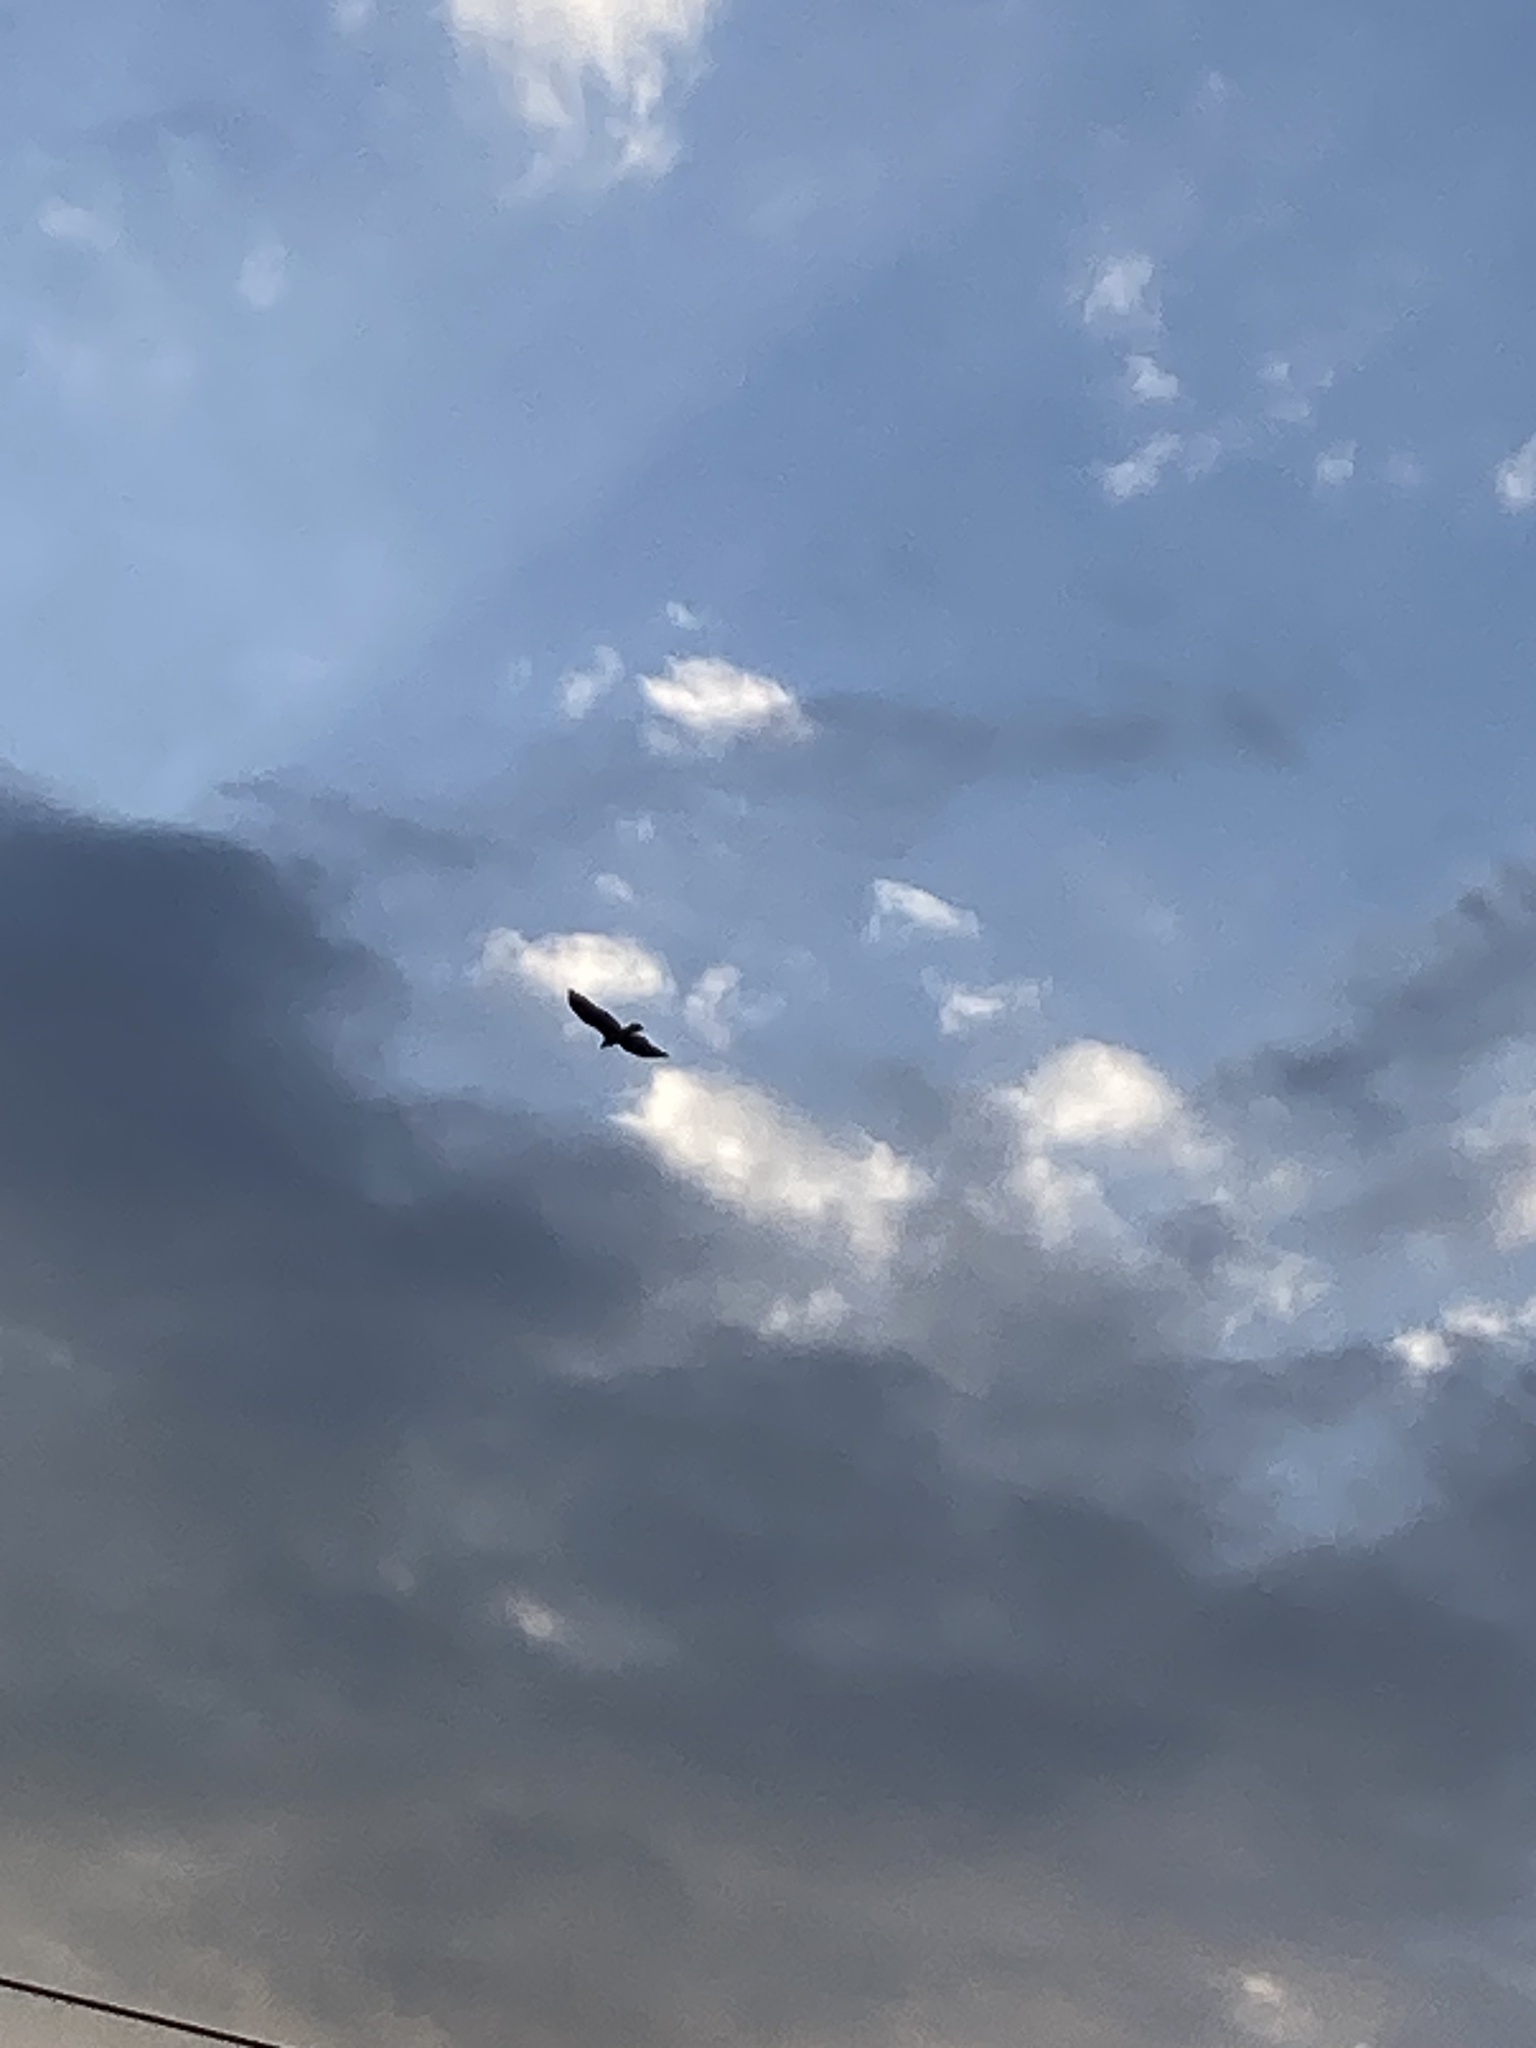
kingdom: Animalia
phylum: Chordata
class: Aves
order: Accipitriformes
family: Cathartidae
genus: Cathartes
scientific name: Cathartes aura
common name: Turkey vulture
